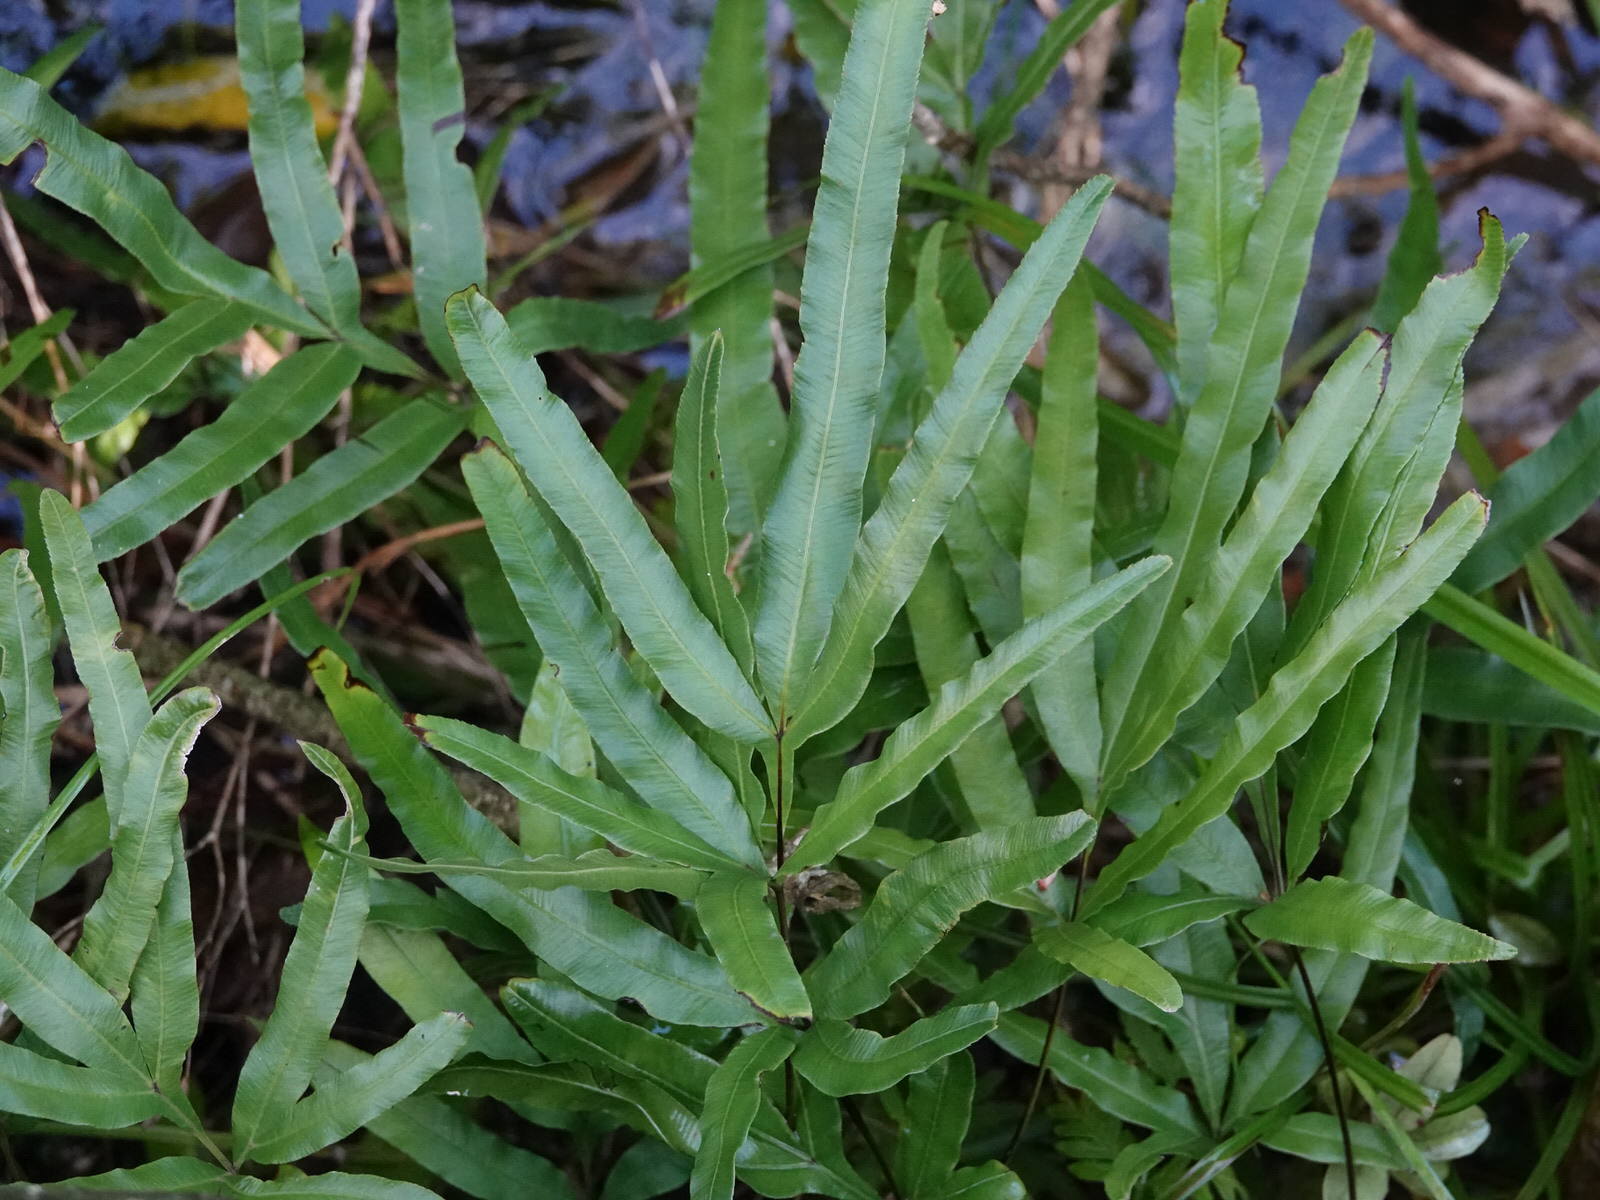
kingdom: Plantae
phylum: Tracheophyta
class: Polypodiopsida
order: Polypodiales
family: Pteridaceae
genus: Pteris
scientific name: Pteris cretica
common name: Ribbon fern
